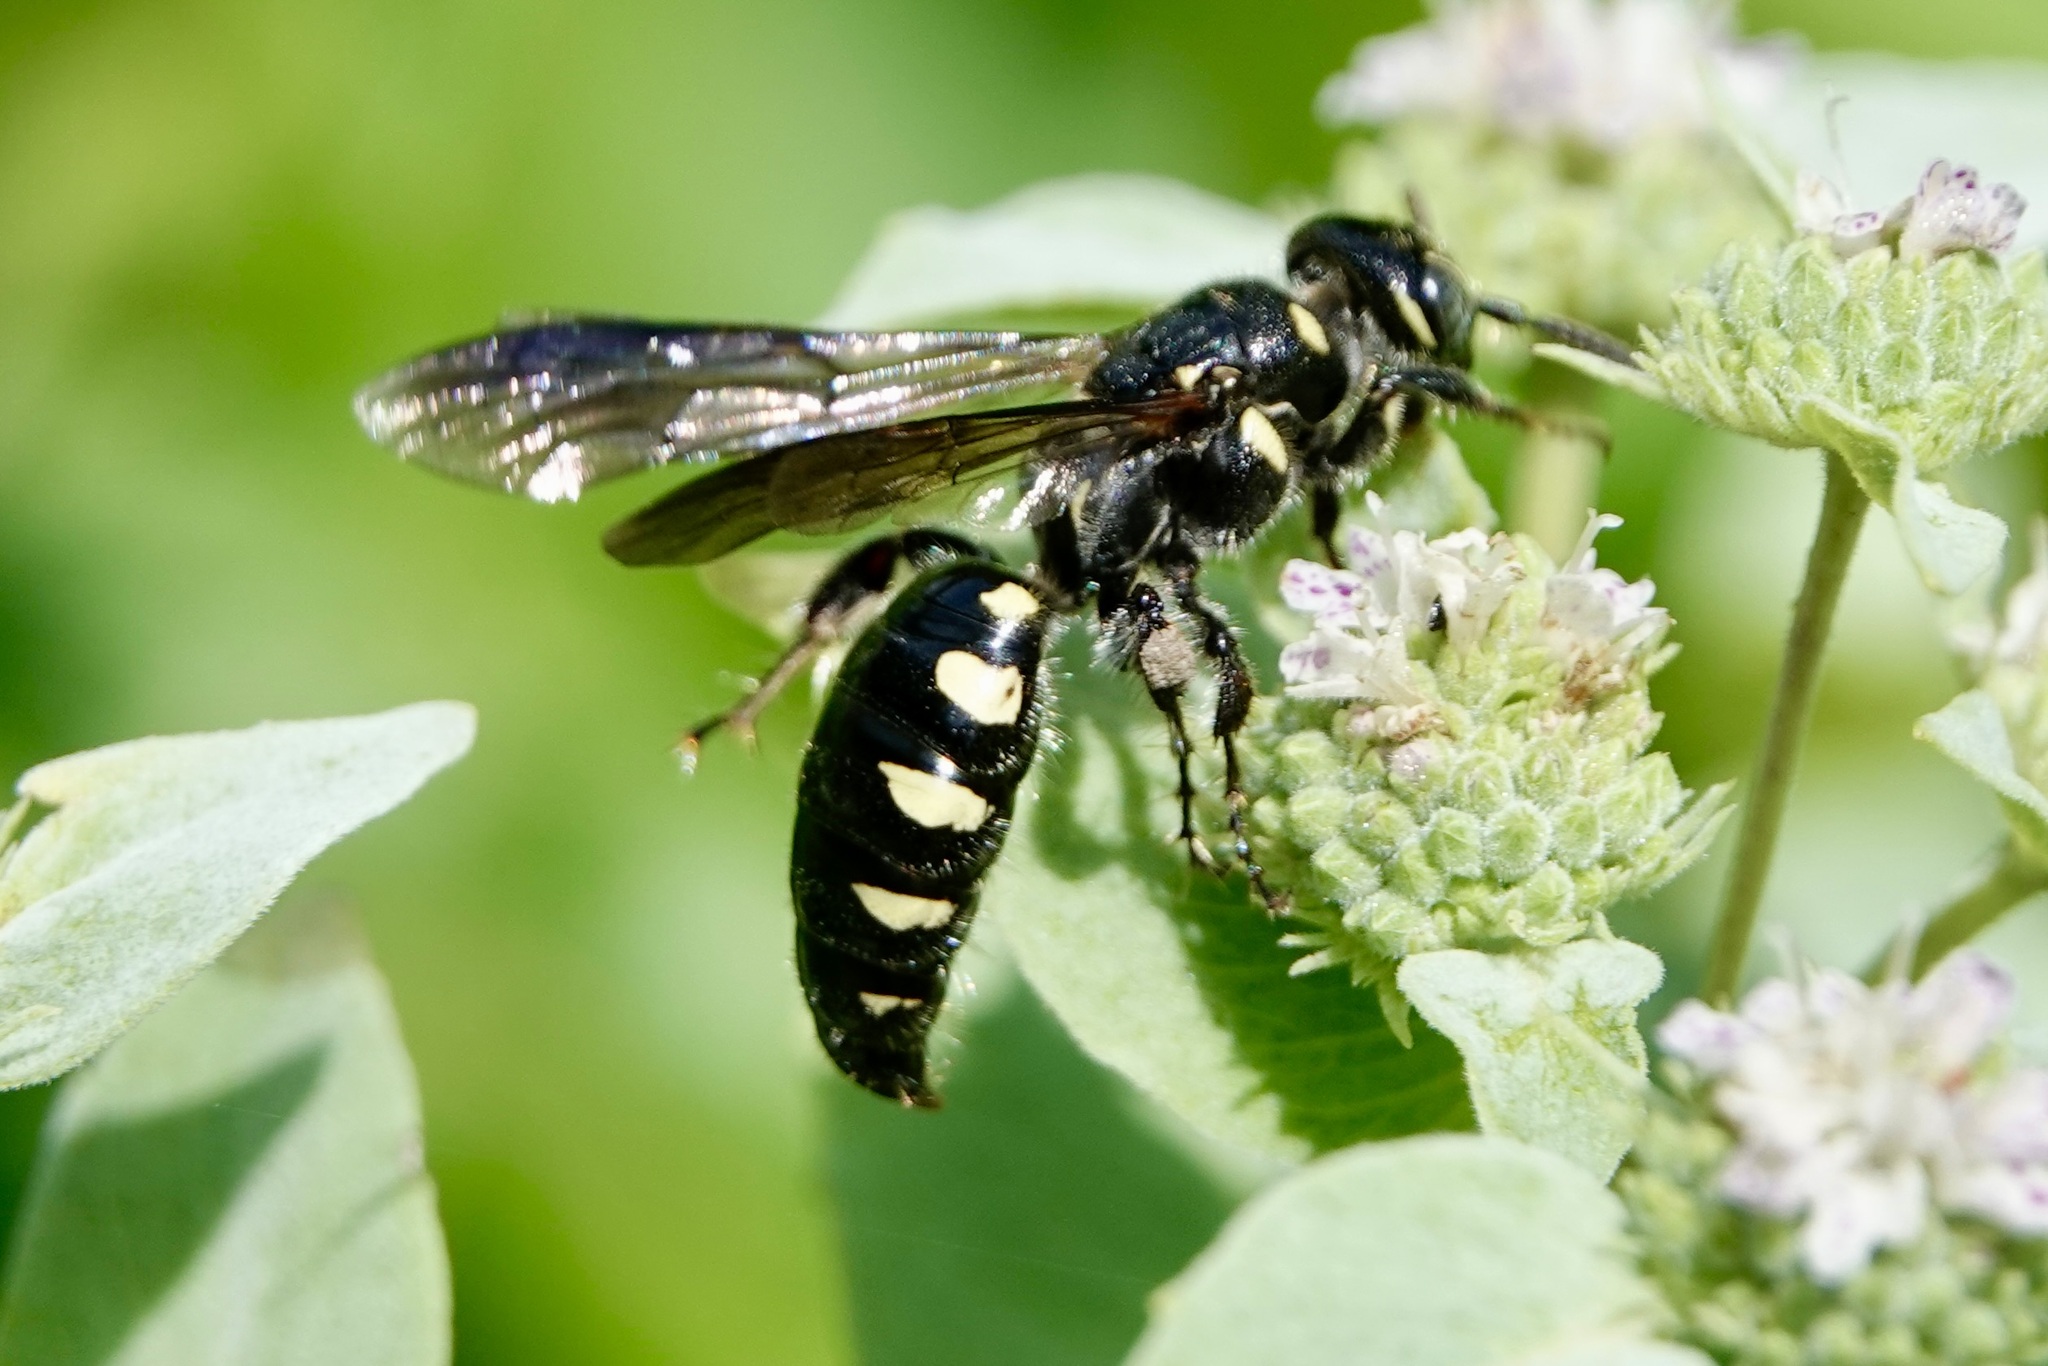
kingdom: Animalia
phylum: Arthropoda
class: Insecta
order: Hymenoptera
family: Tiphiidae
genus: Myzinum
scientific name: Myzinum obscurum
